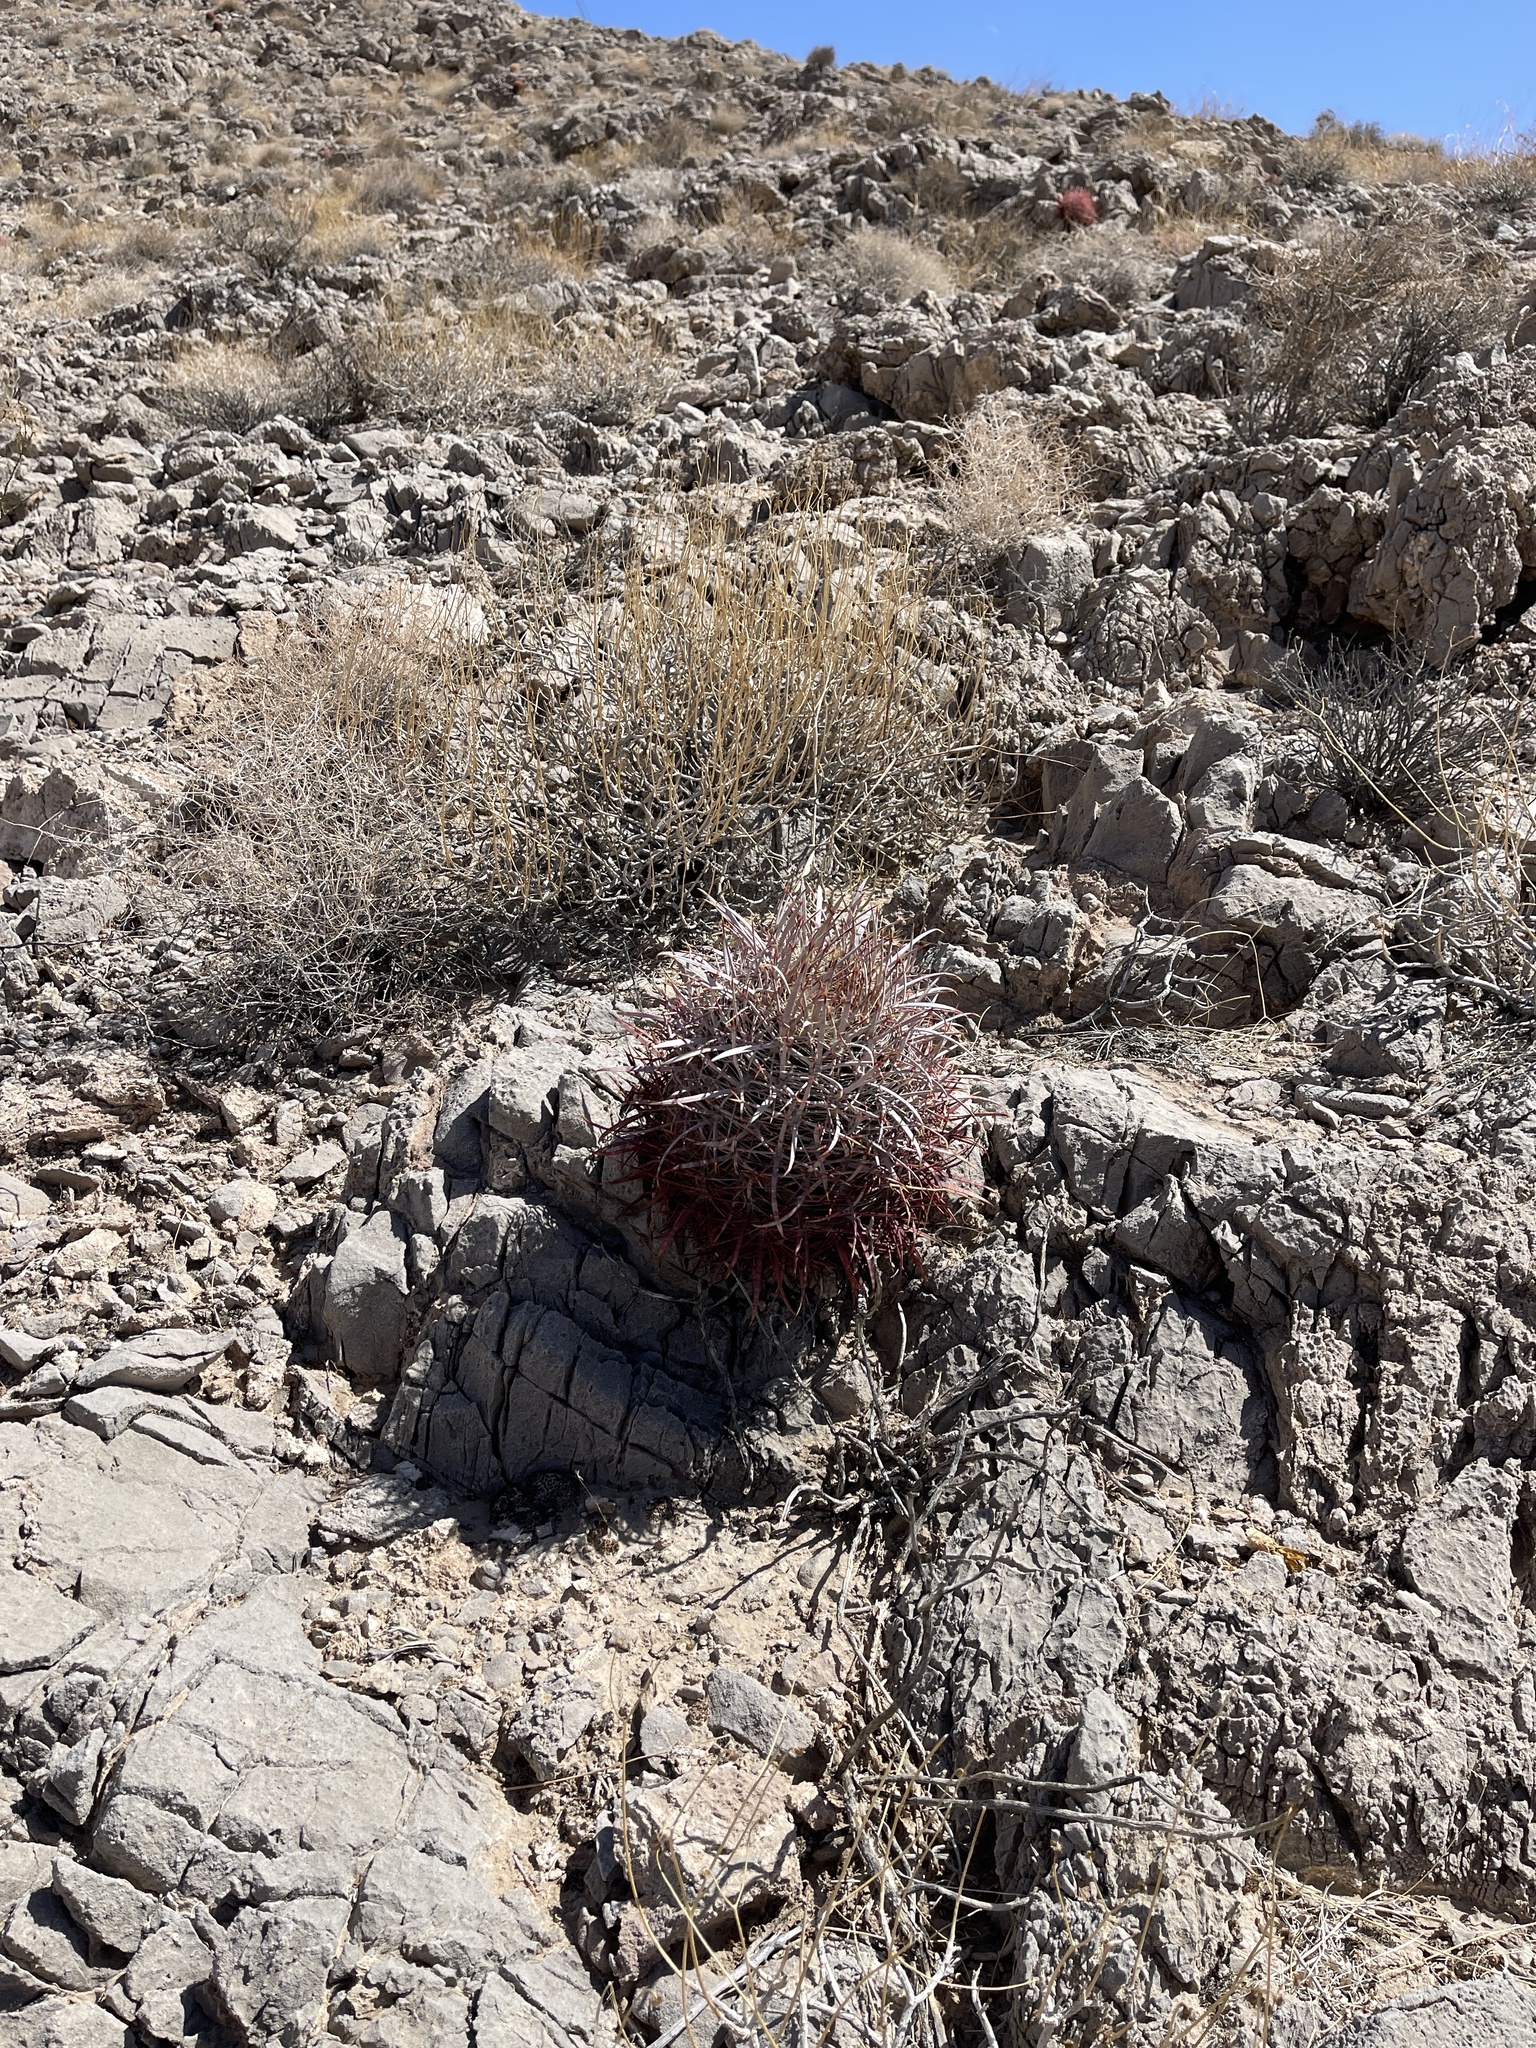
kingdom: Plantae
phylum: Tracheophyta
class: Magnoliopsida
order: Caryophyllales
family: Cactaceae
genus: Ferocactus
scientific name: Ferocactus cylindraceus
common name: California barrel cactus
